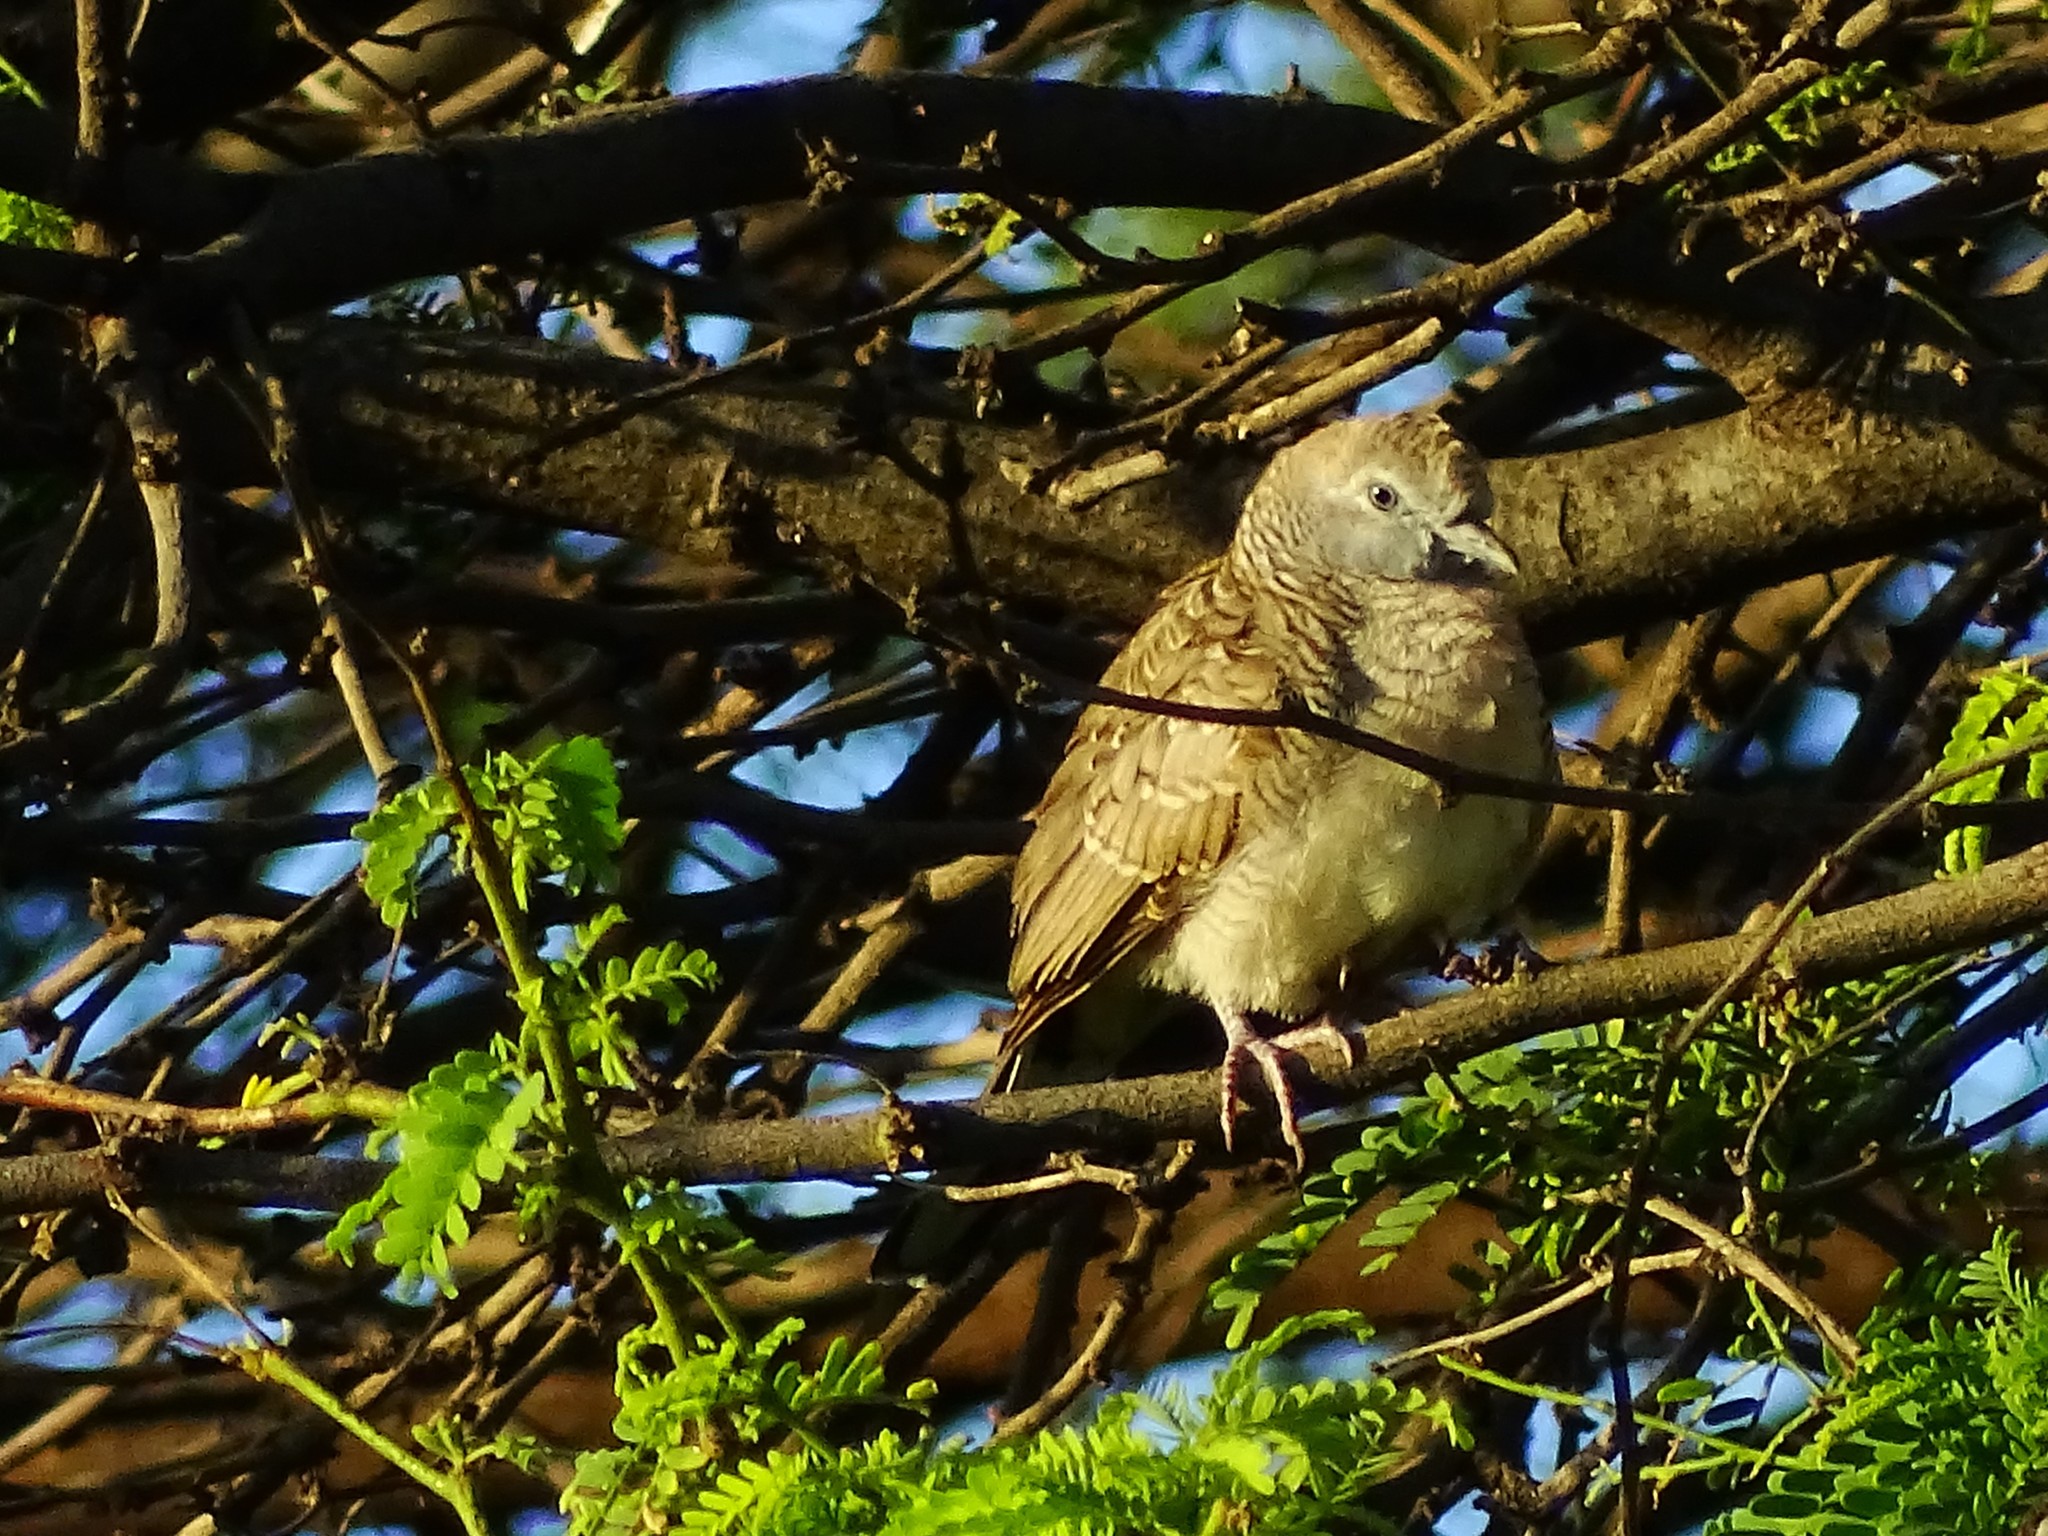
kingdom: Animalia
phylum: Chordata
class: Aves
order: Columbiformes
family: Columbidae
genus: Geopelia
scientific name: Geopelia striata
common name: Zebra dove
